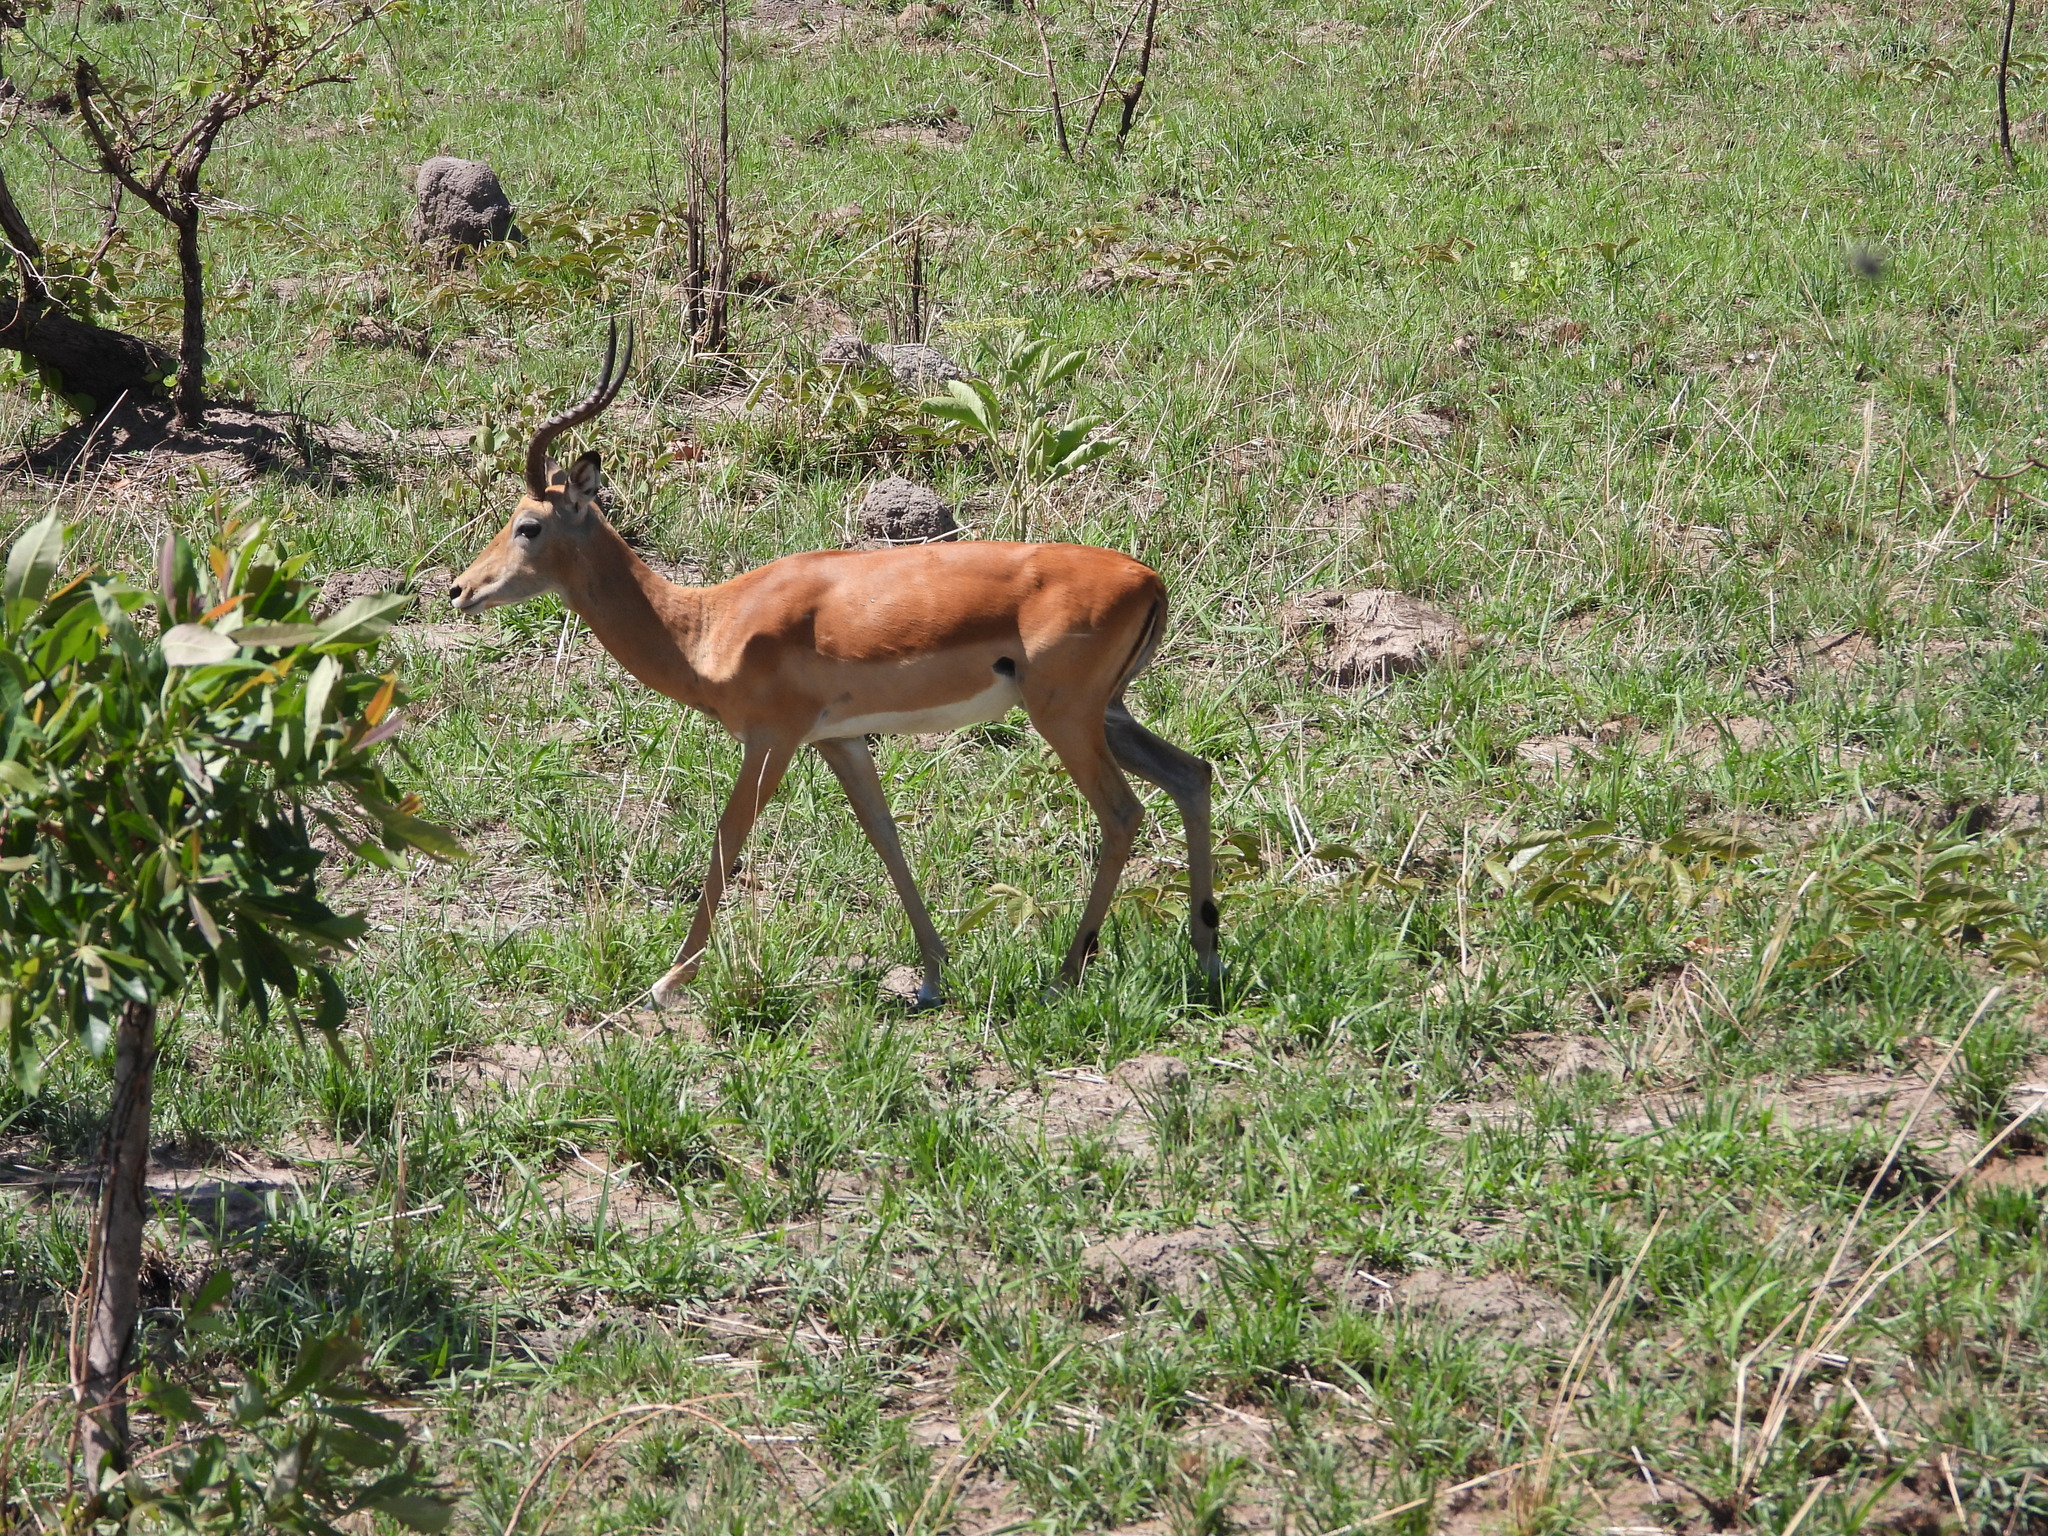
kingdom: Animalia
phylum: Chordata
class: Mammalia
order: Artiodactyla
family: Bovidae
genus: Aepyceros
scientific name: Aepyceros melampus
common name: Impala
